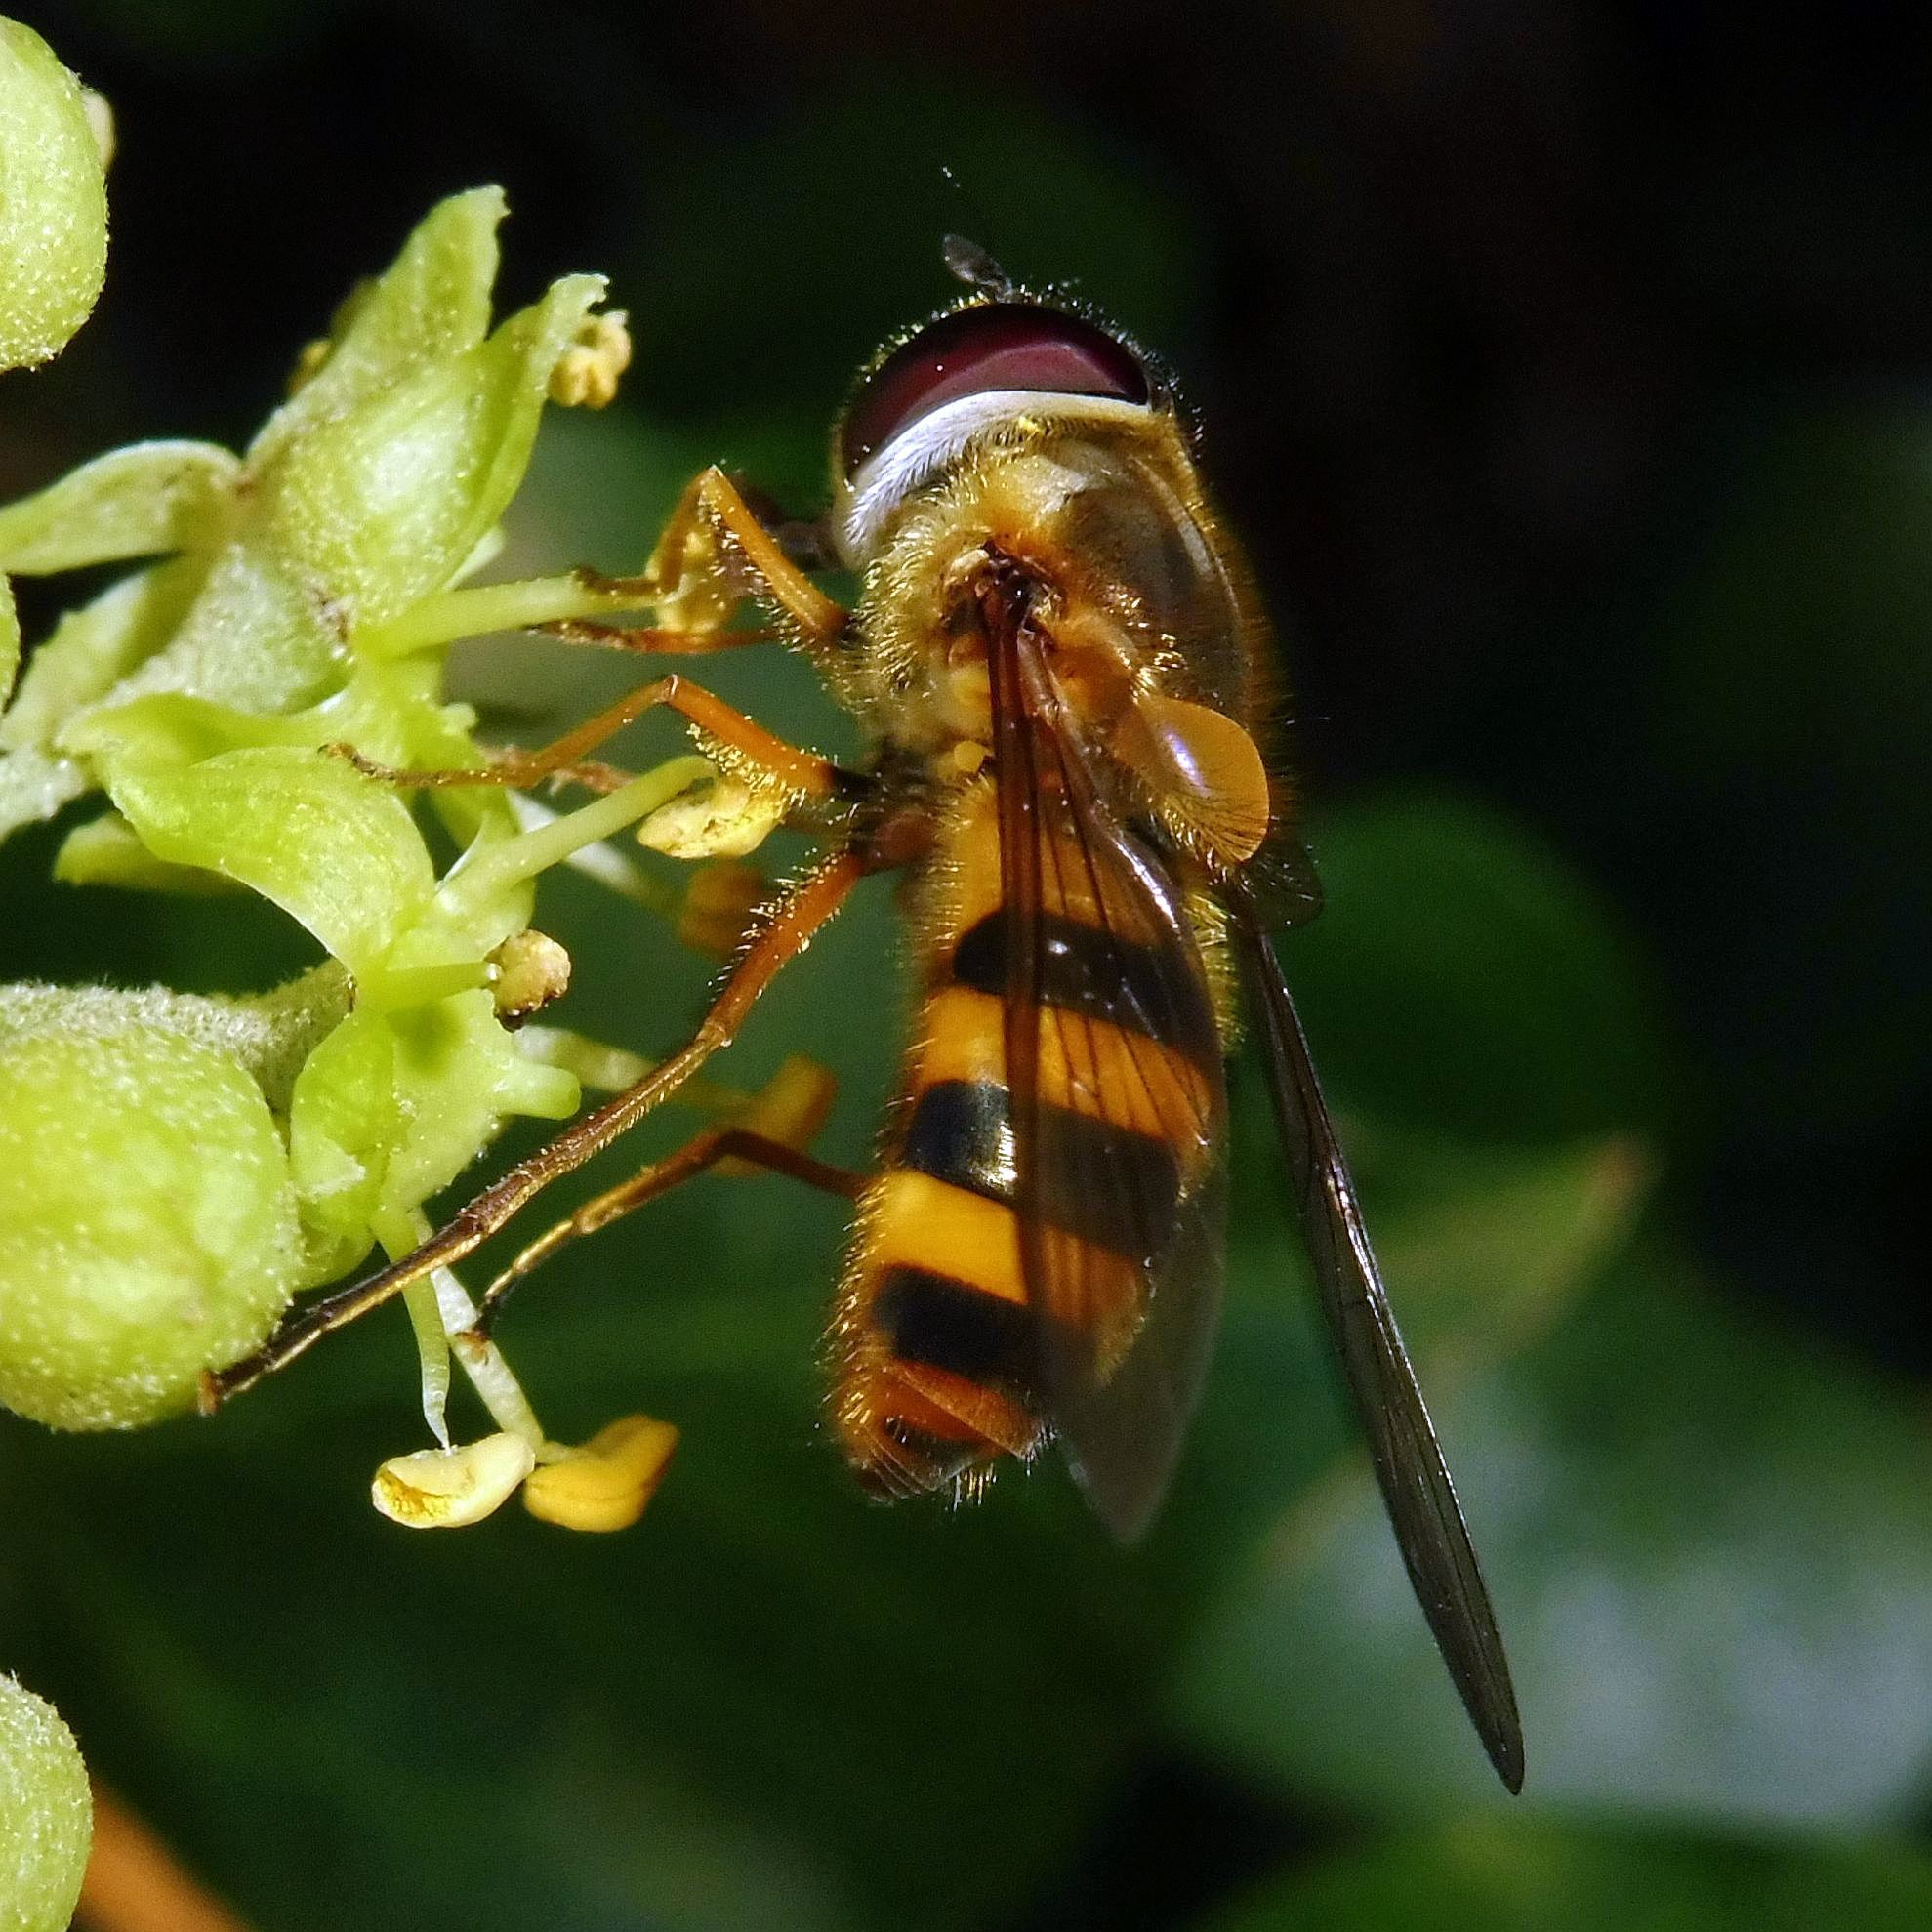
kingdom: Animalia
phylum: Arthropoda
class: Insecta
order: Diptera
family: Syrphidae
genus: Epistrophe
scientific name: Epistrophe grossulariae
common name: Black-horned smoothtail
